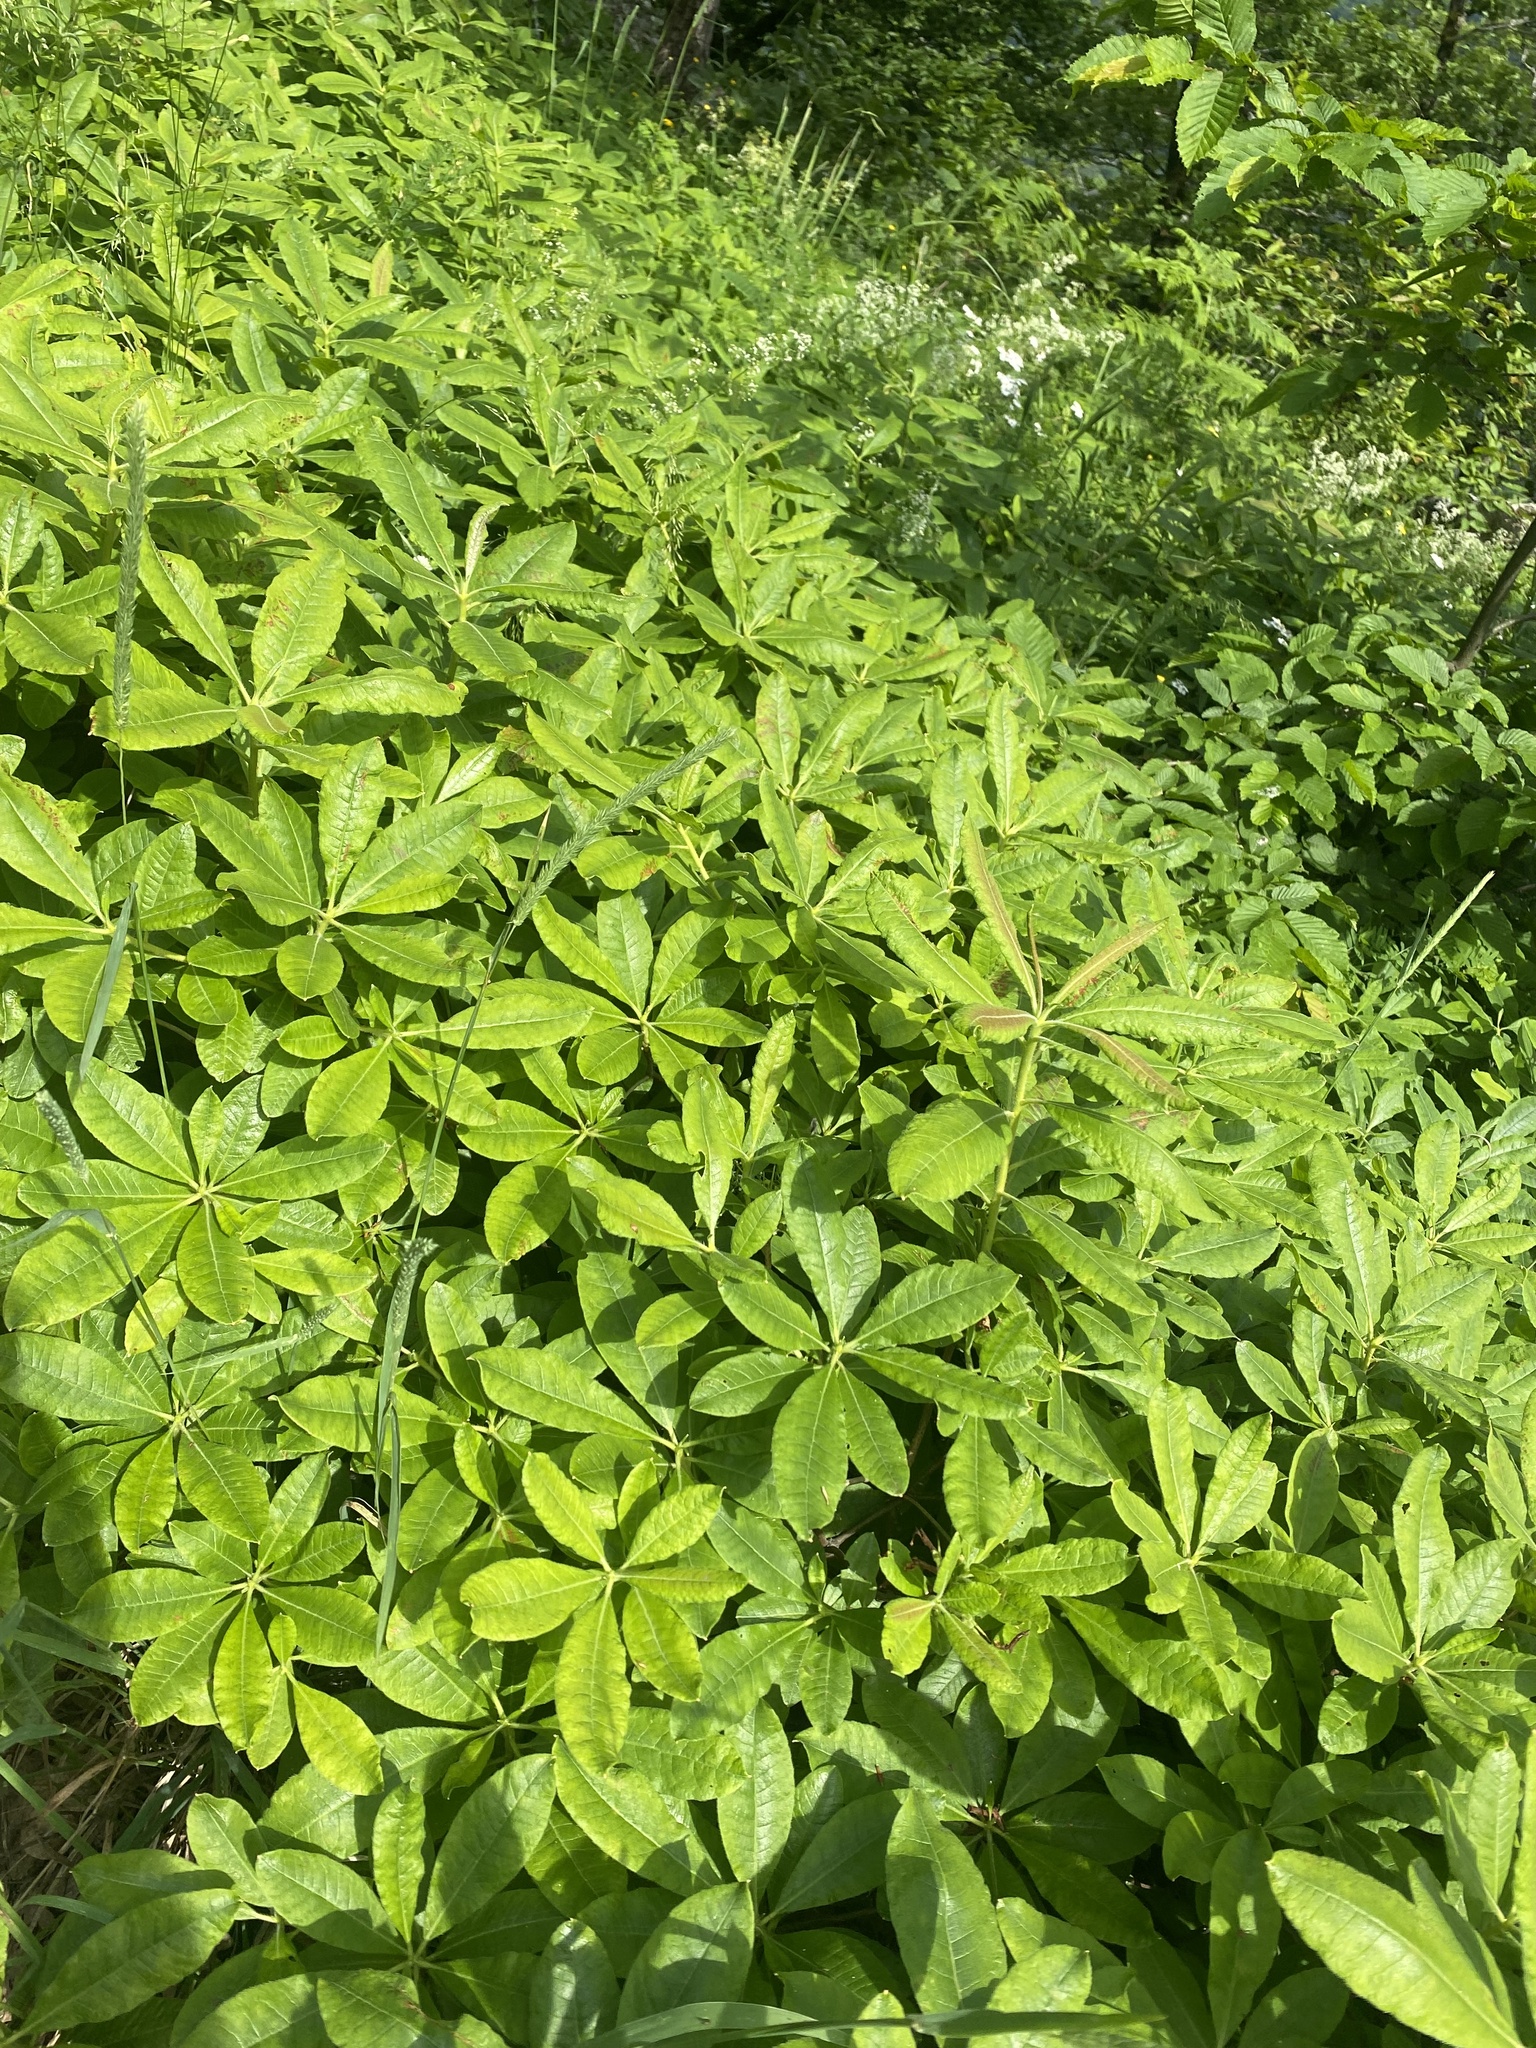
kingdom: Plantae
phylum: Tracheophyta
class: Magnoliopsida
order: Ericales
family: Ericaceae
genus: Rhododendron
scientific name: Rhododendron luteum
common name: Yellow azalea
